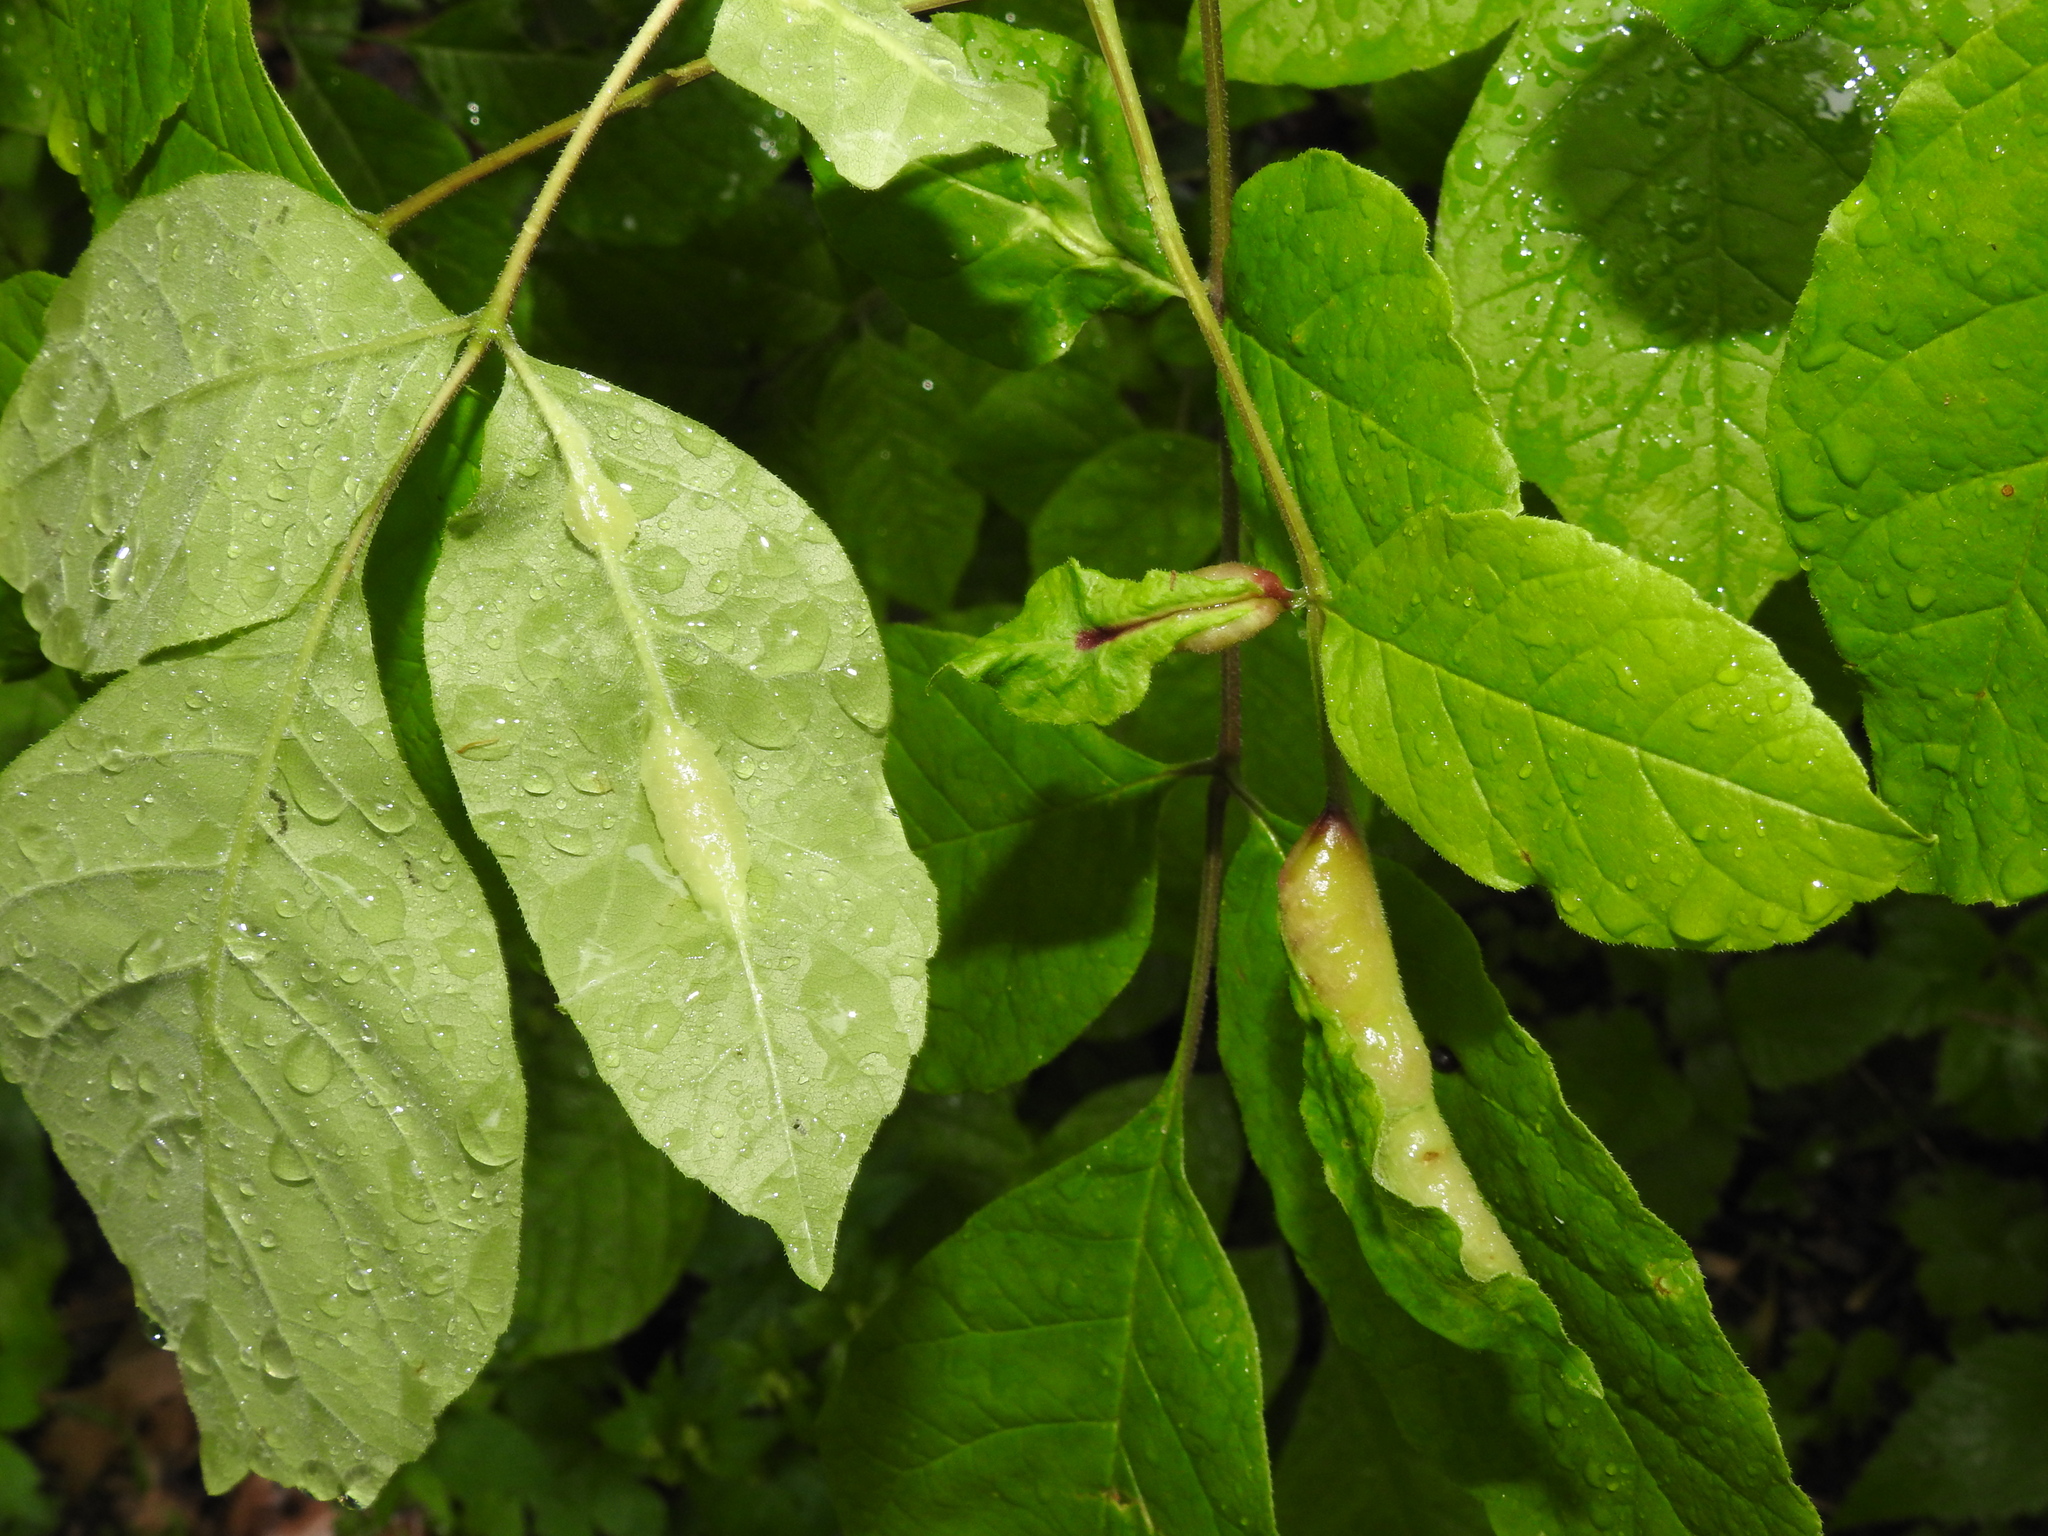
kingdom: Animalia
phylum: Arthropoda
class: Insecta
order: Diptera
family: Cecidomyiidae
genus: Dasineura
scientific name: Dasineura tumidosae
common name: Ash petiole gall midge
